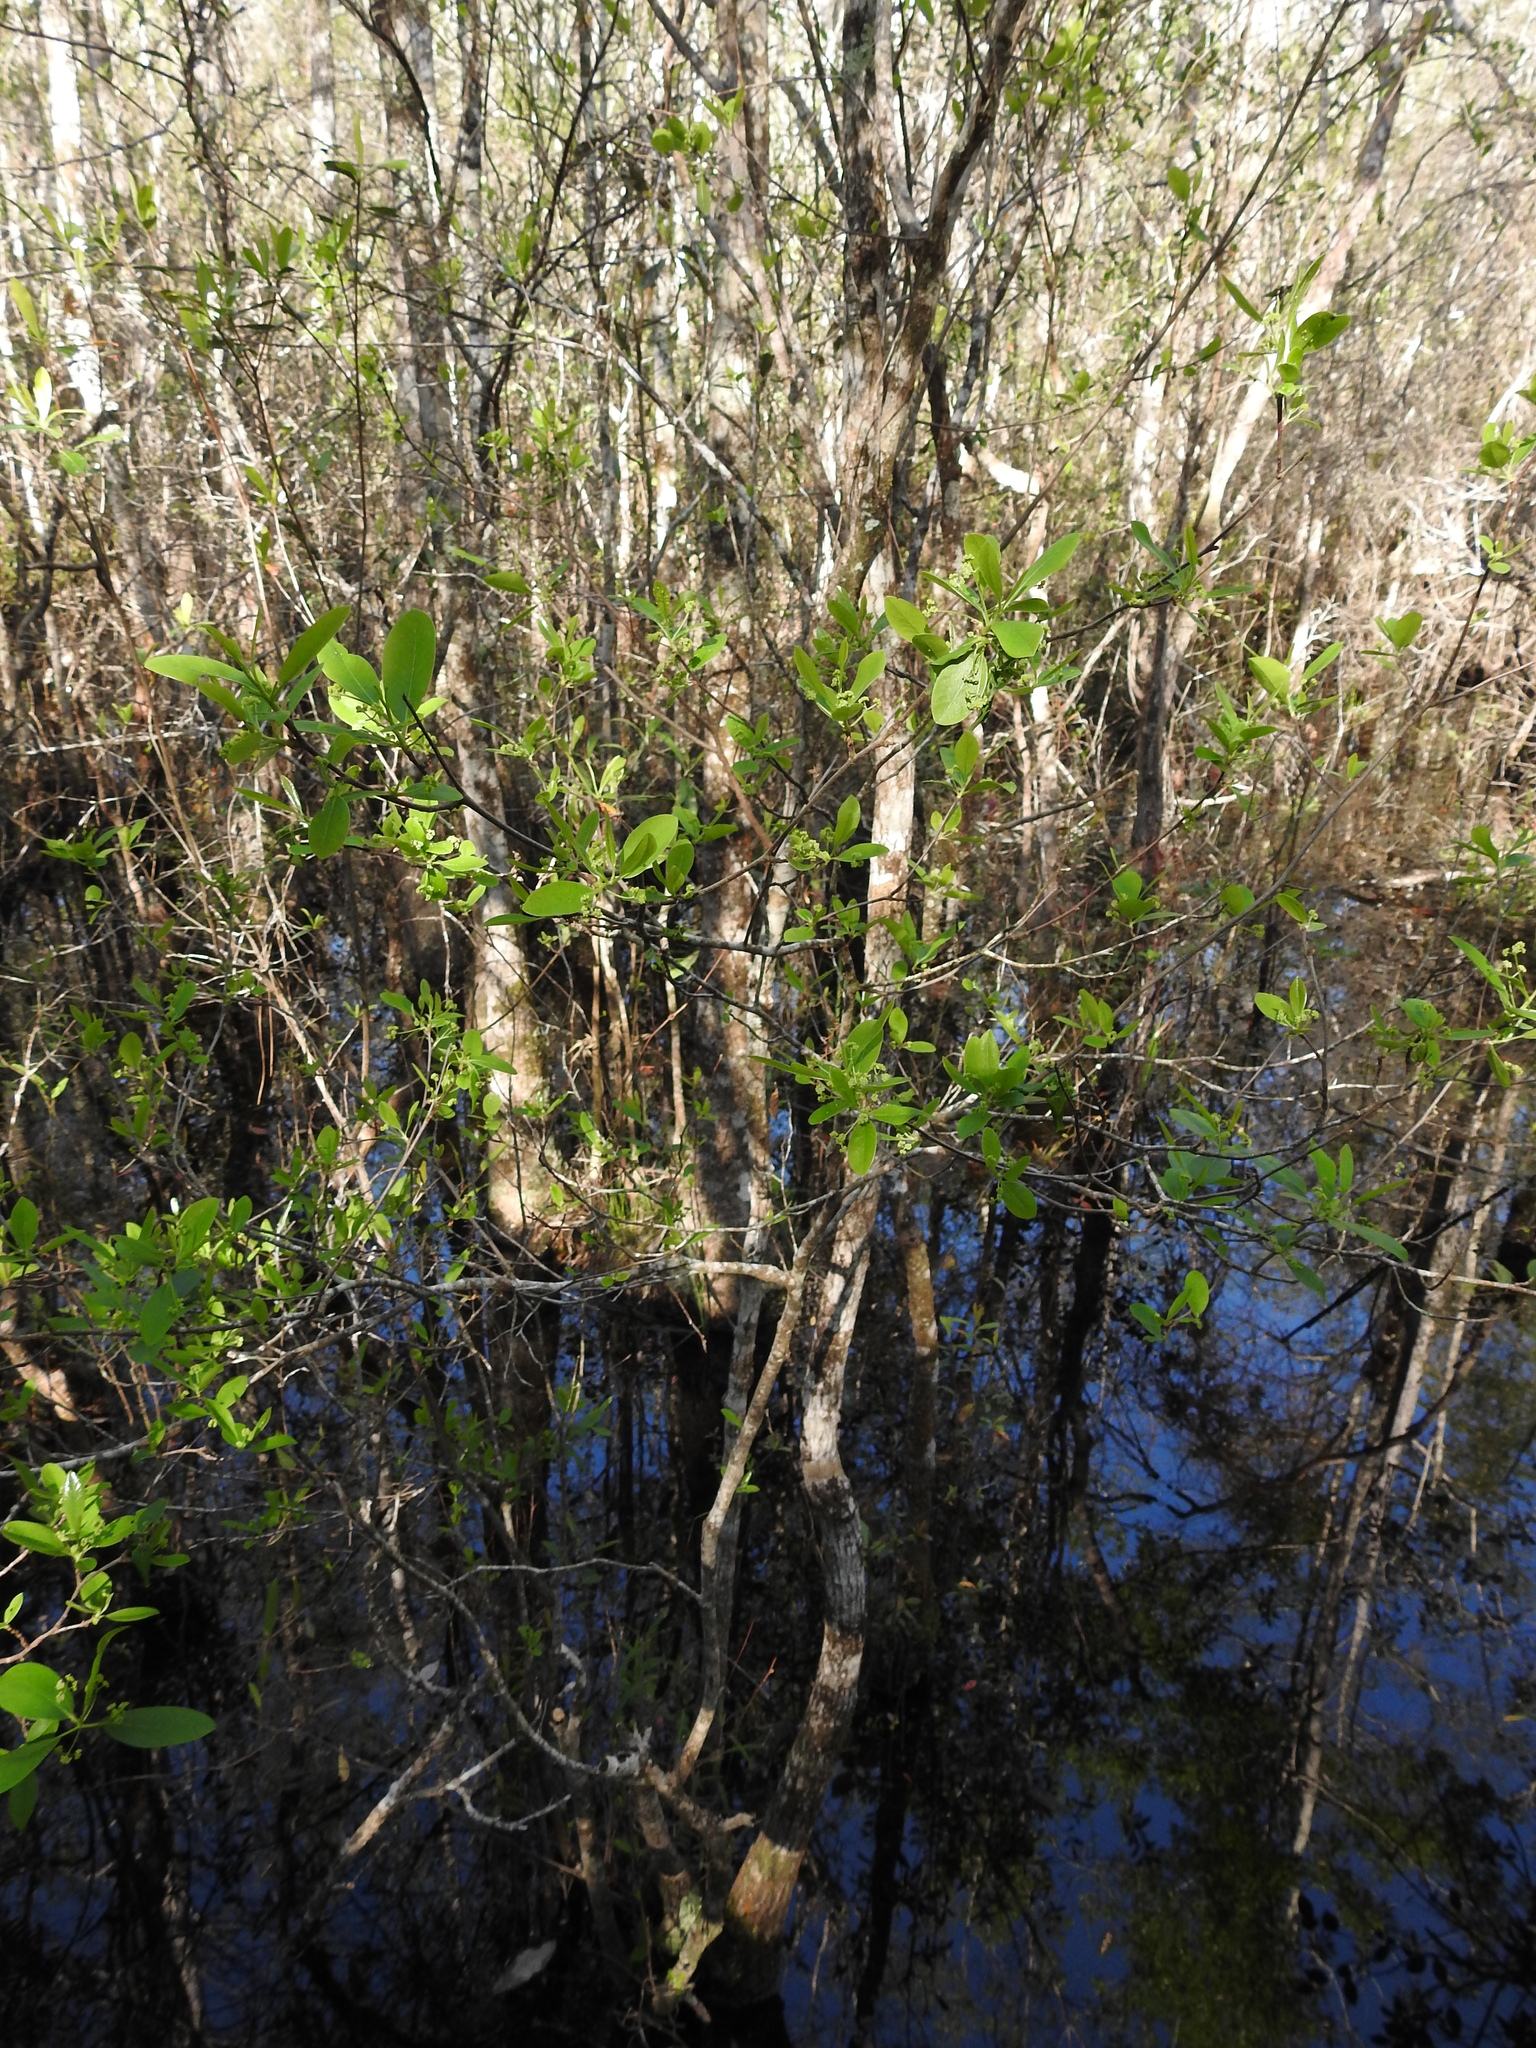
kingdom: Plantae
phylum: Tracheophyta
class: Magnoliopsida
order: Cornales
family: Nyssaceae
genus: Nyssa
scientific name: Nyssa biflora
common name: Swamp blackgum
